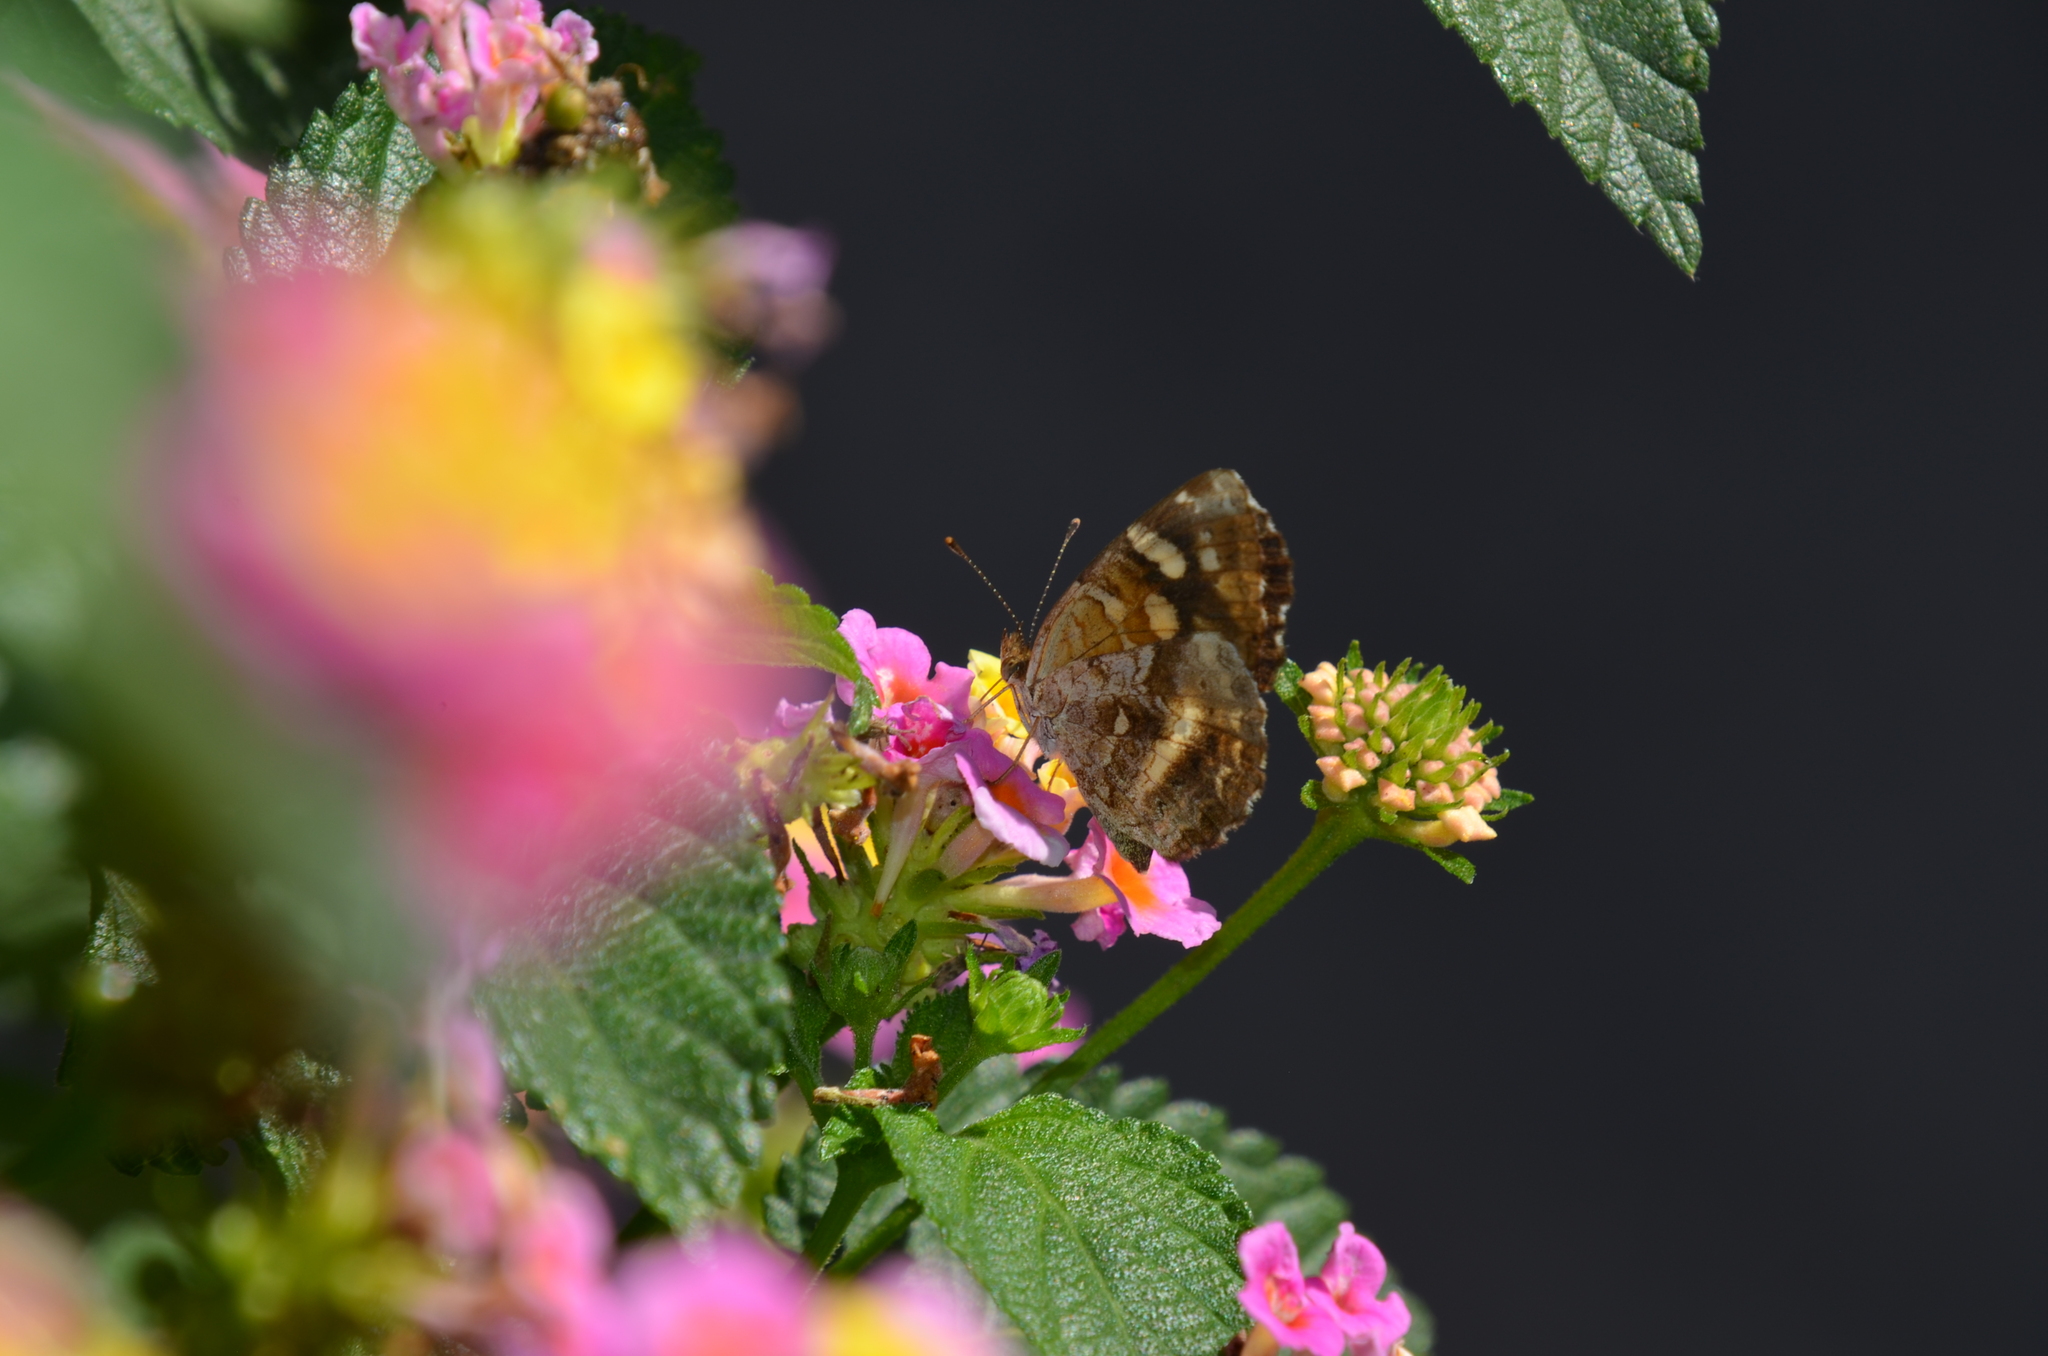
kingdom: Animalia
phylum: Arthropoda
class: Insecta
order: Lepidoptera
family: Nymphalidae
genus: Anthanassa
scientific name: Anthanassa tulcis
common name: Pale-banded crescent
